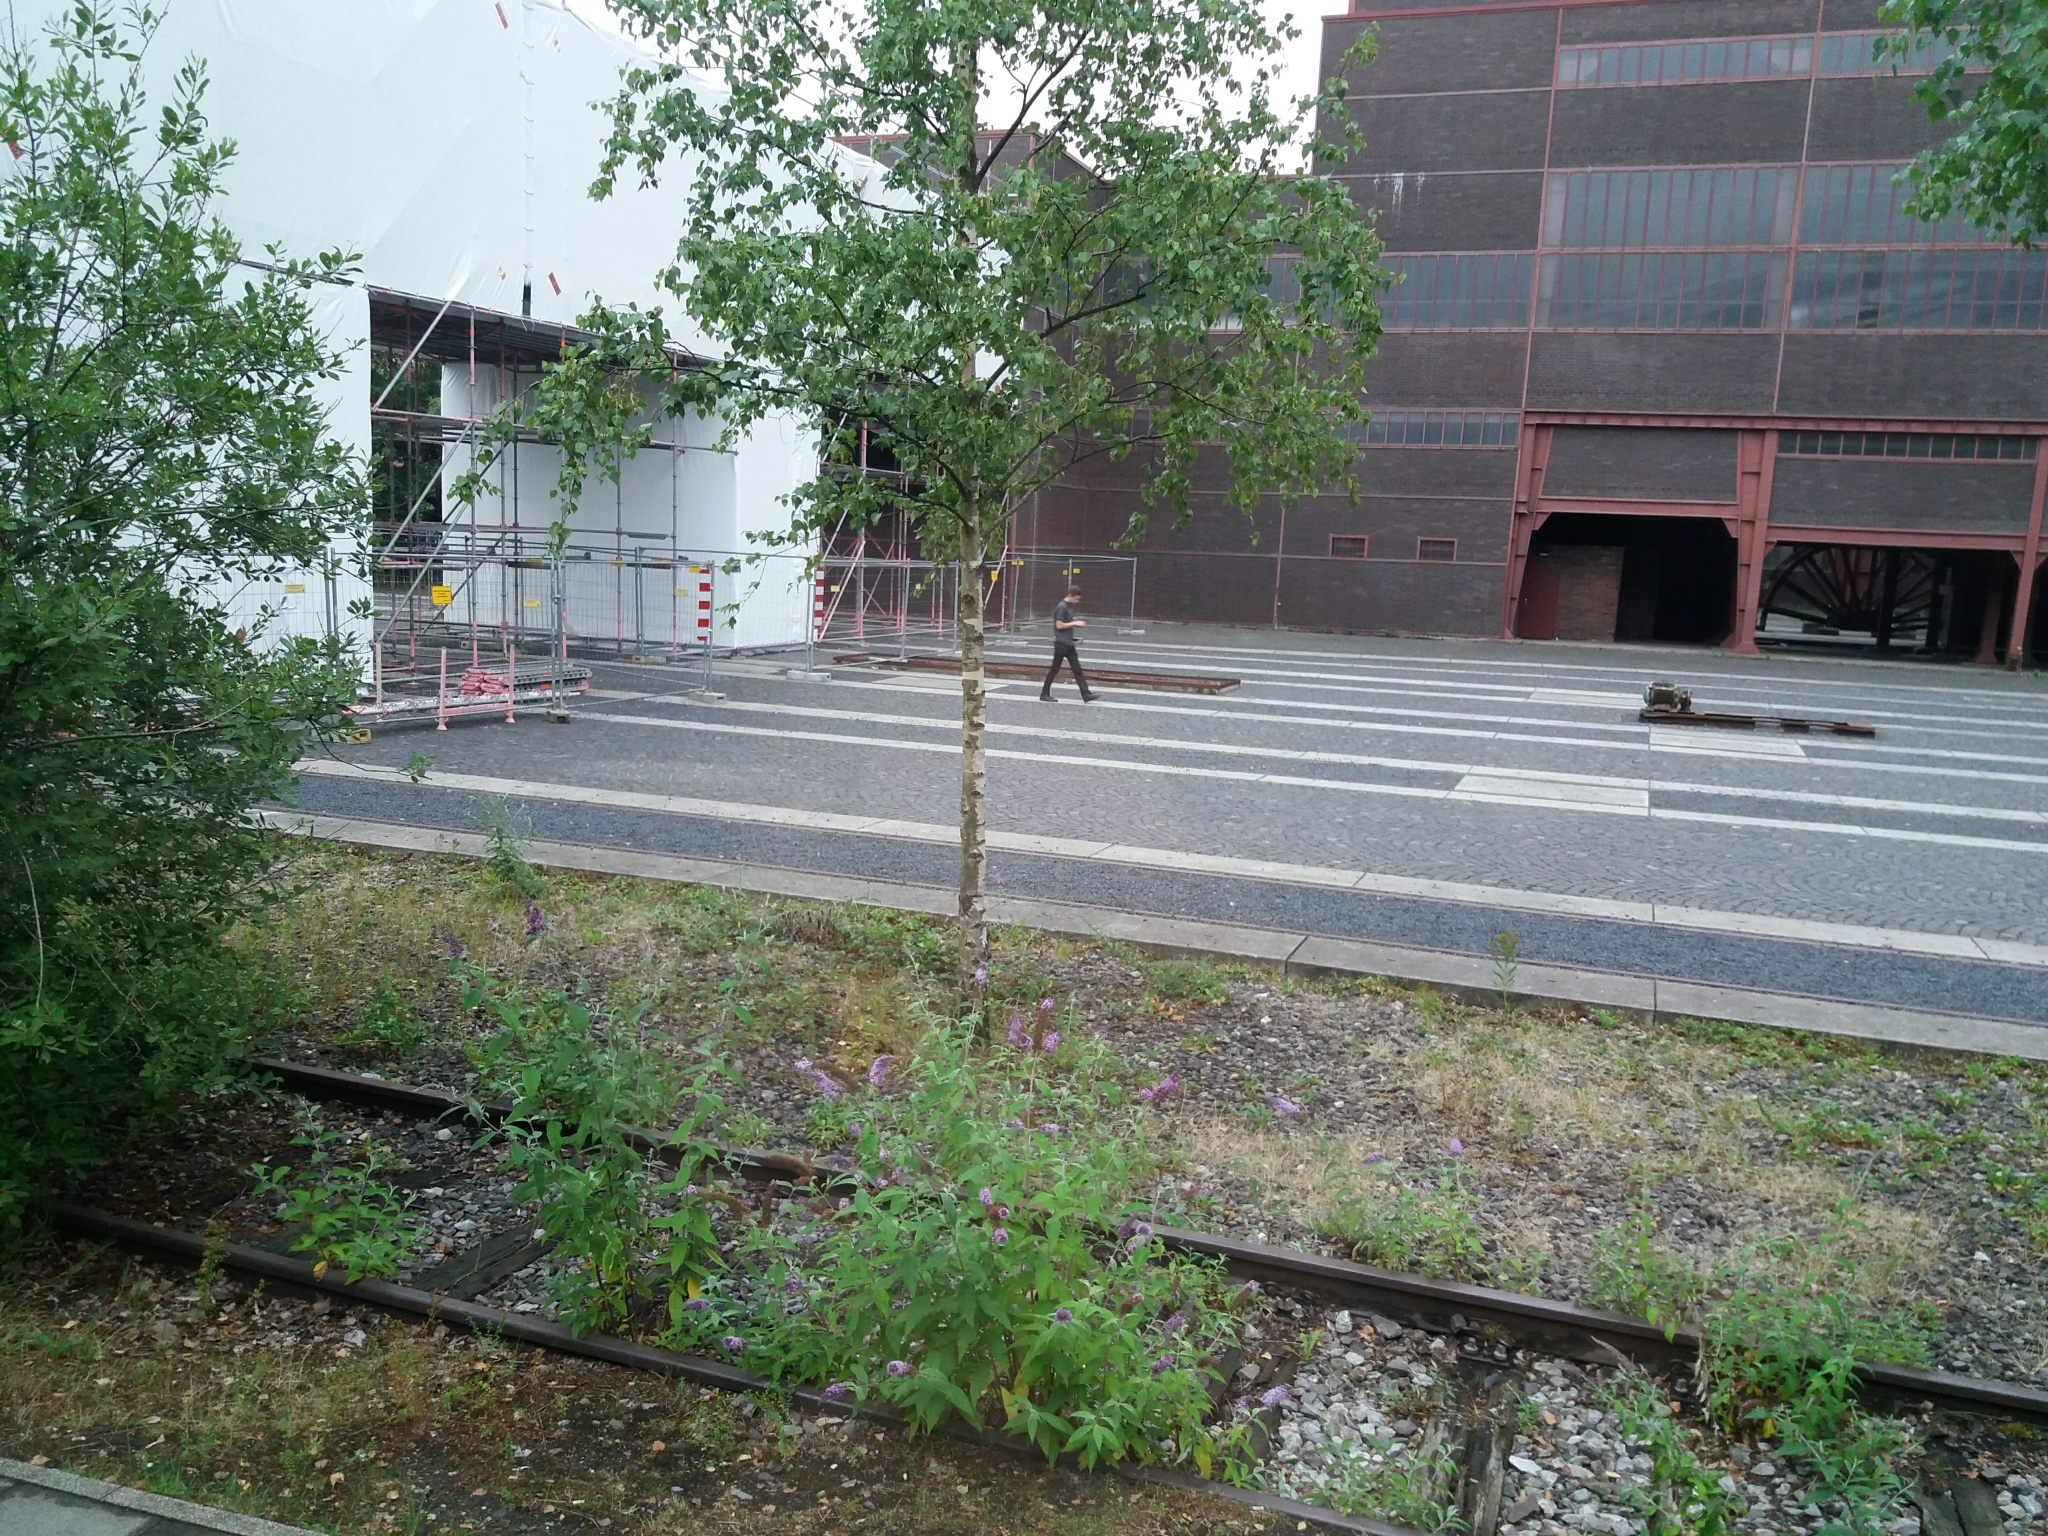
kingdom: Plantae
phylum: Tracheophyta
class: Magnoliopsida
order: Fagales
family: Betulaceae
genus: Betula
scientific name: Betula pendula
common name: Silver birch
